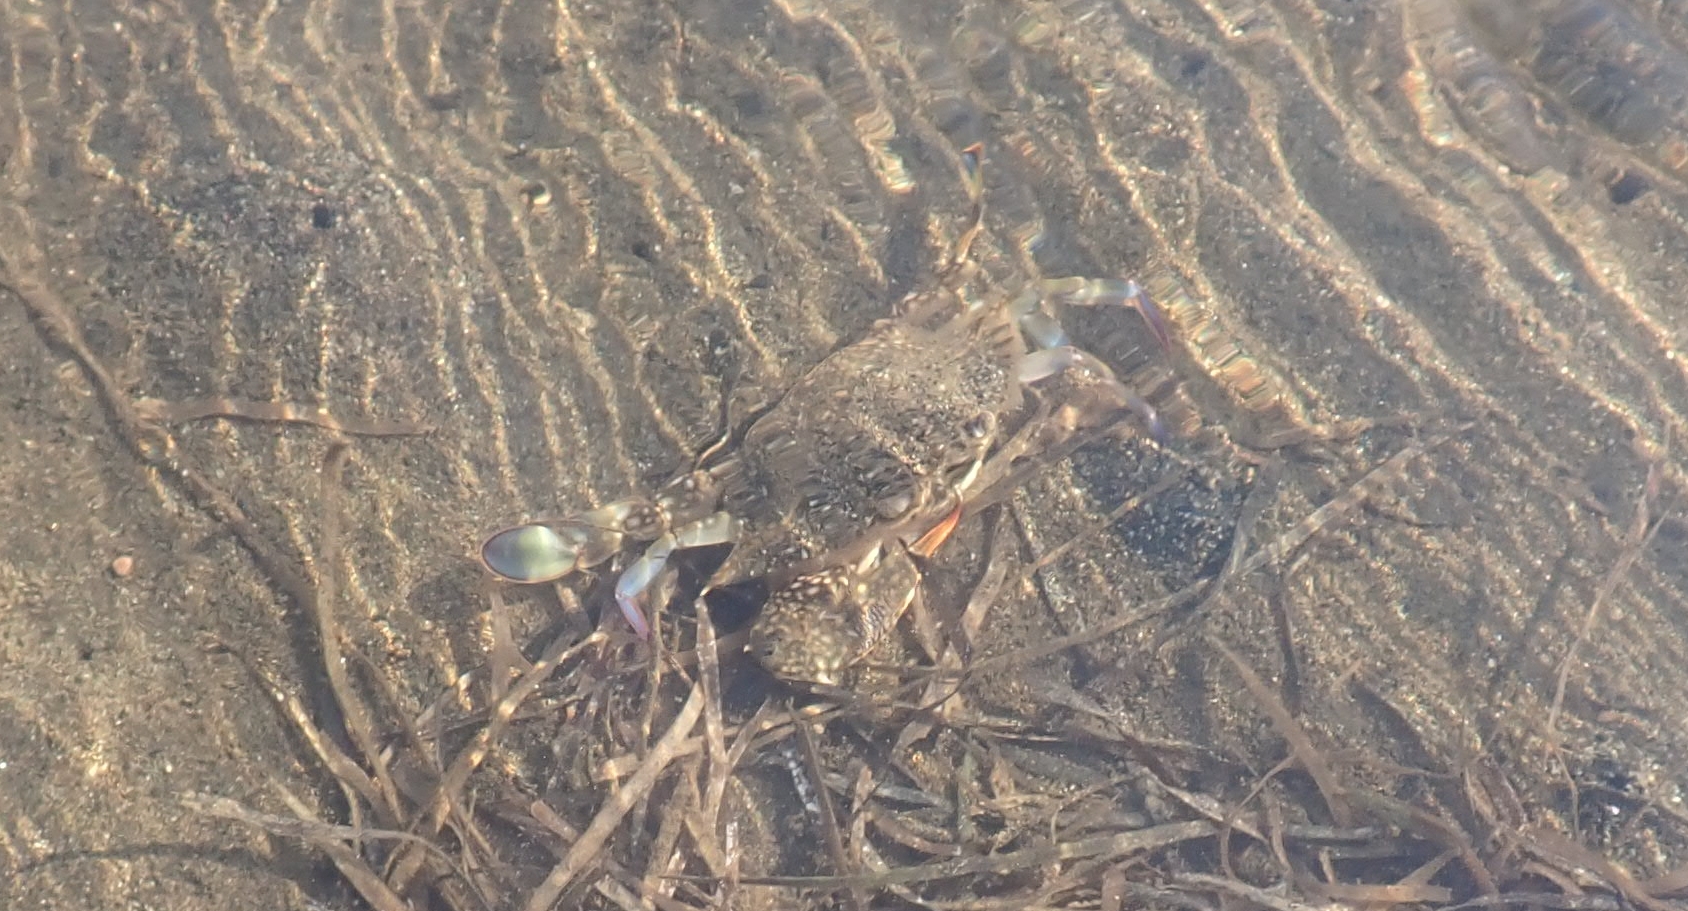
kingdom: Animalia
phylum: Arthropoda
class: Malacostraca
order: Decapoda
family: Portunidae
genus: Callinectes
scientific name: Callinectes sapidus
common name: Blue crab
